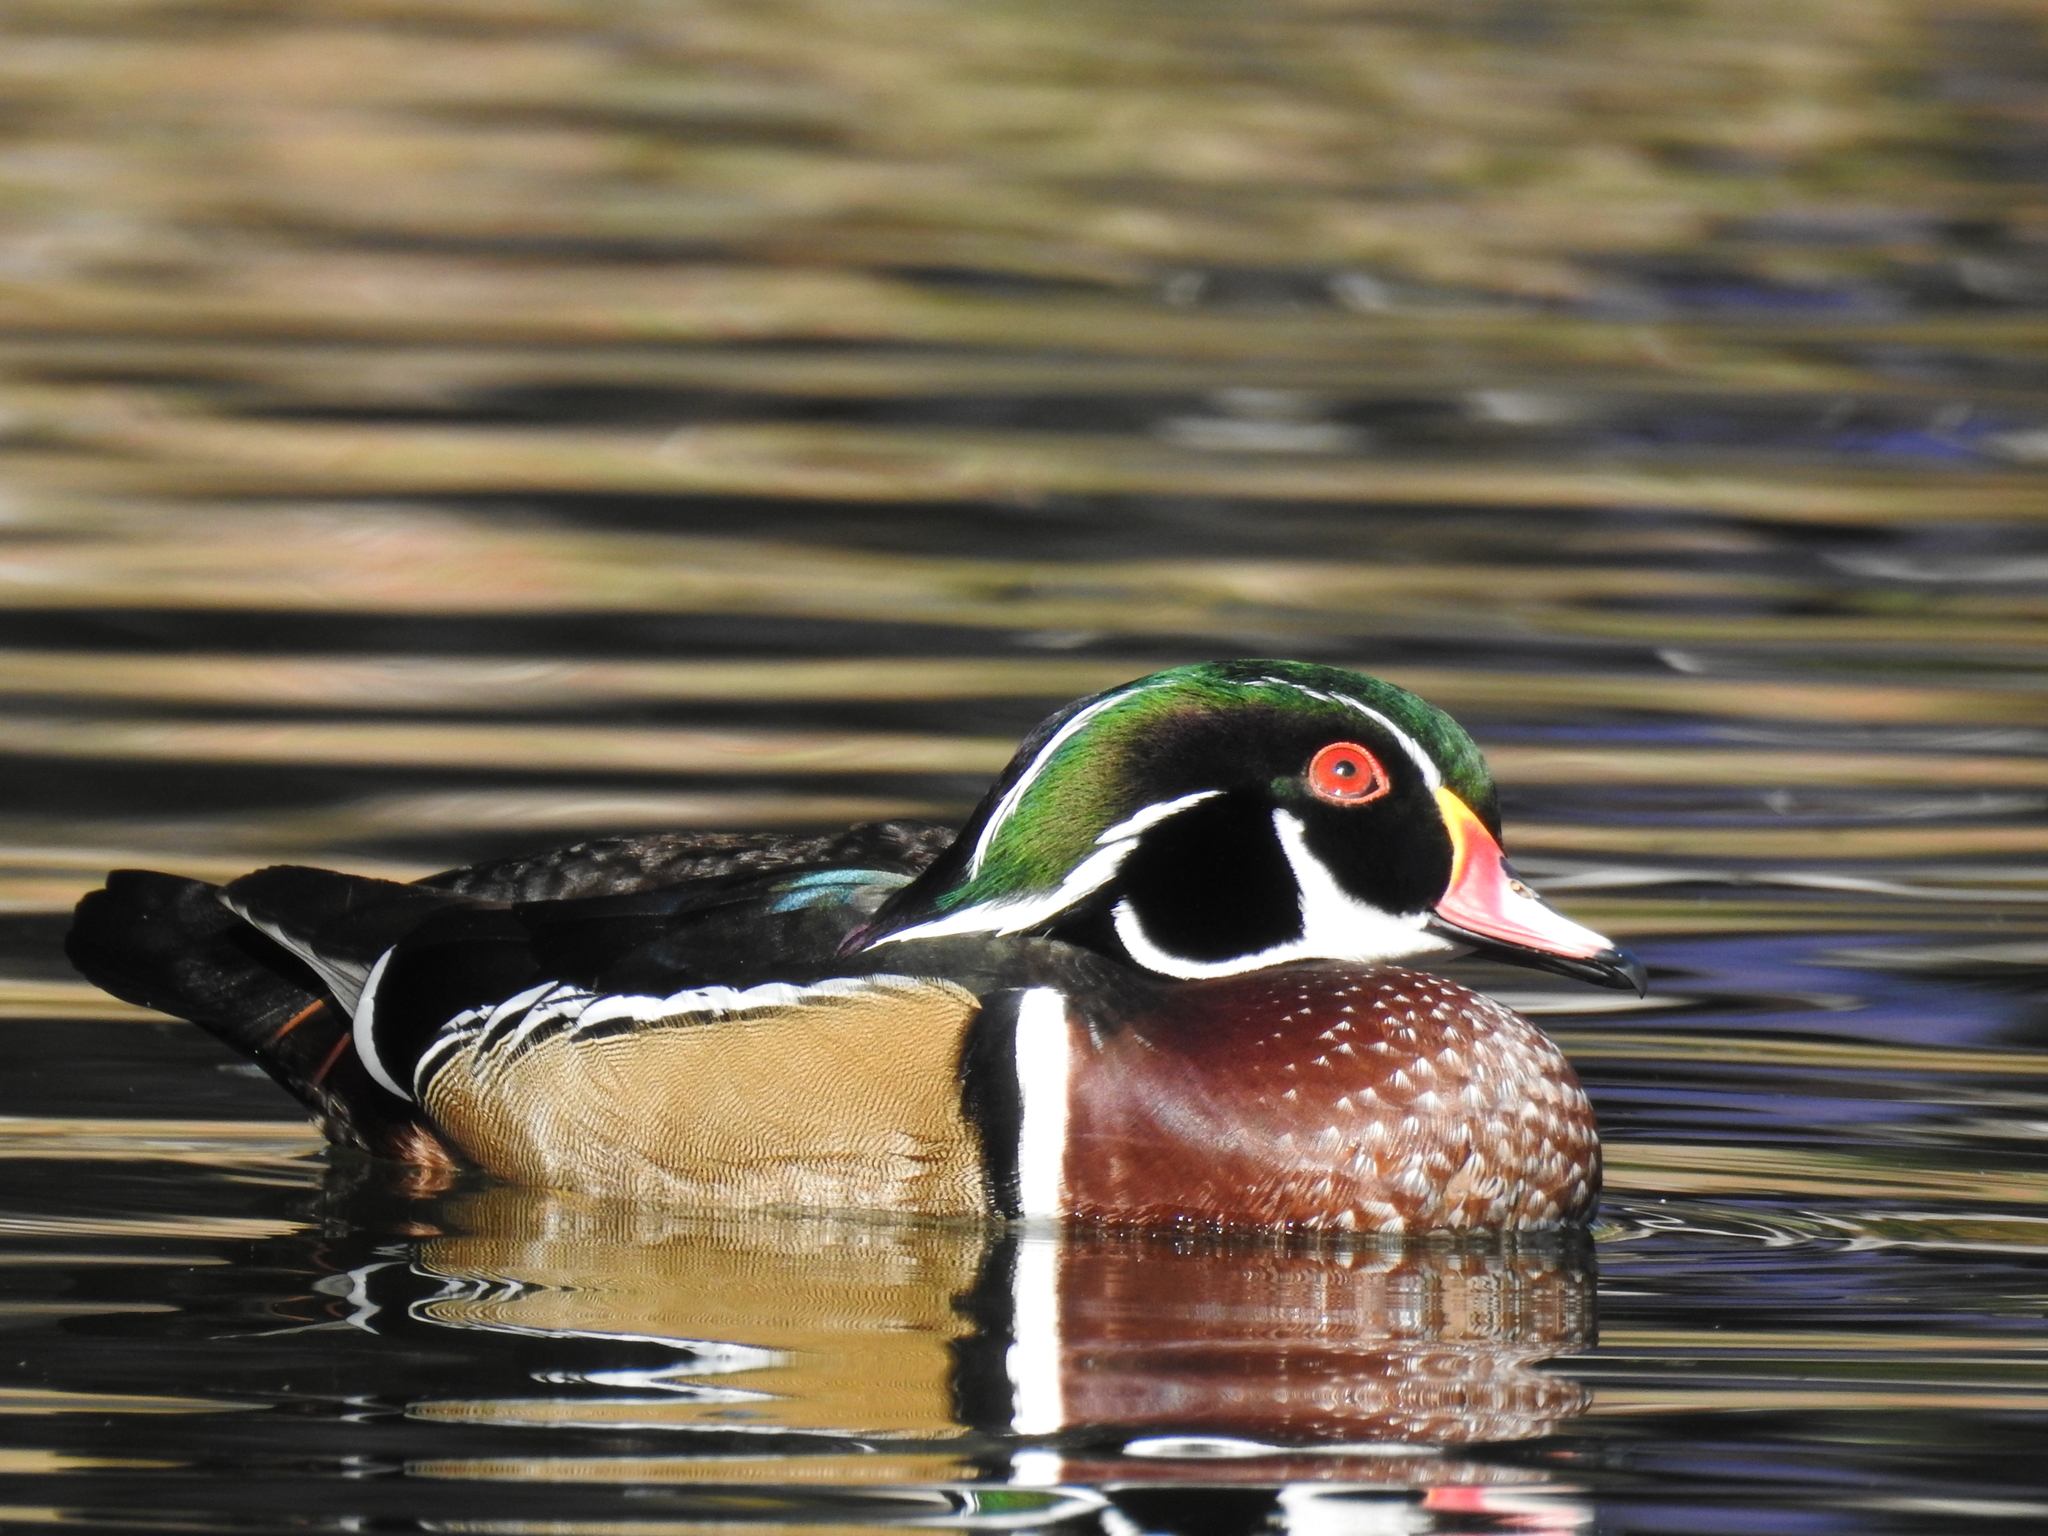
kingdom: Animalia
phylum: Chordata
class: Aves
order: Anseriformes
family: Anatidae
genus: Aix
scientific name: Aix sponsa
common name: Wood duck
